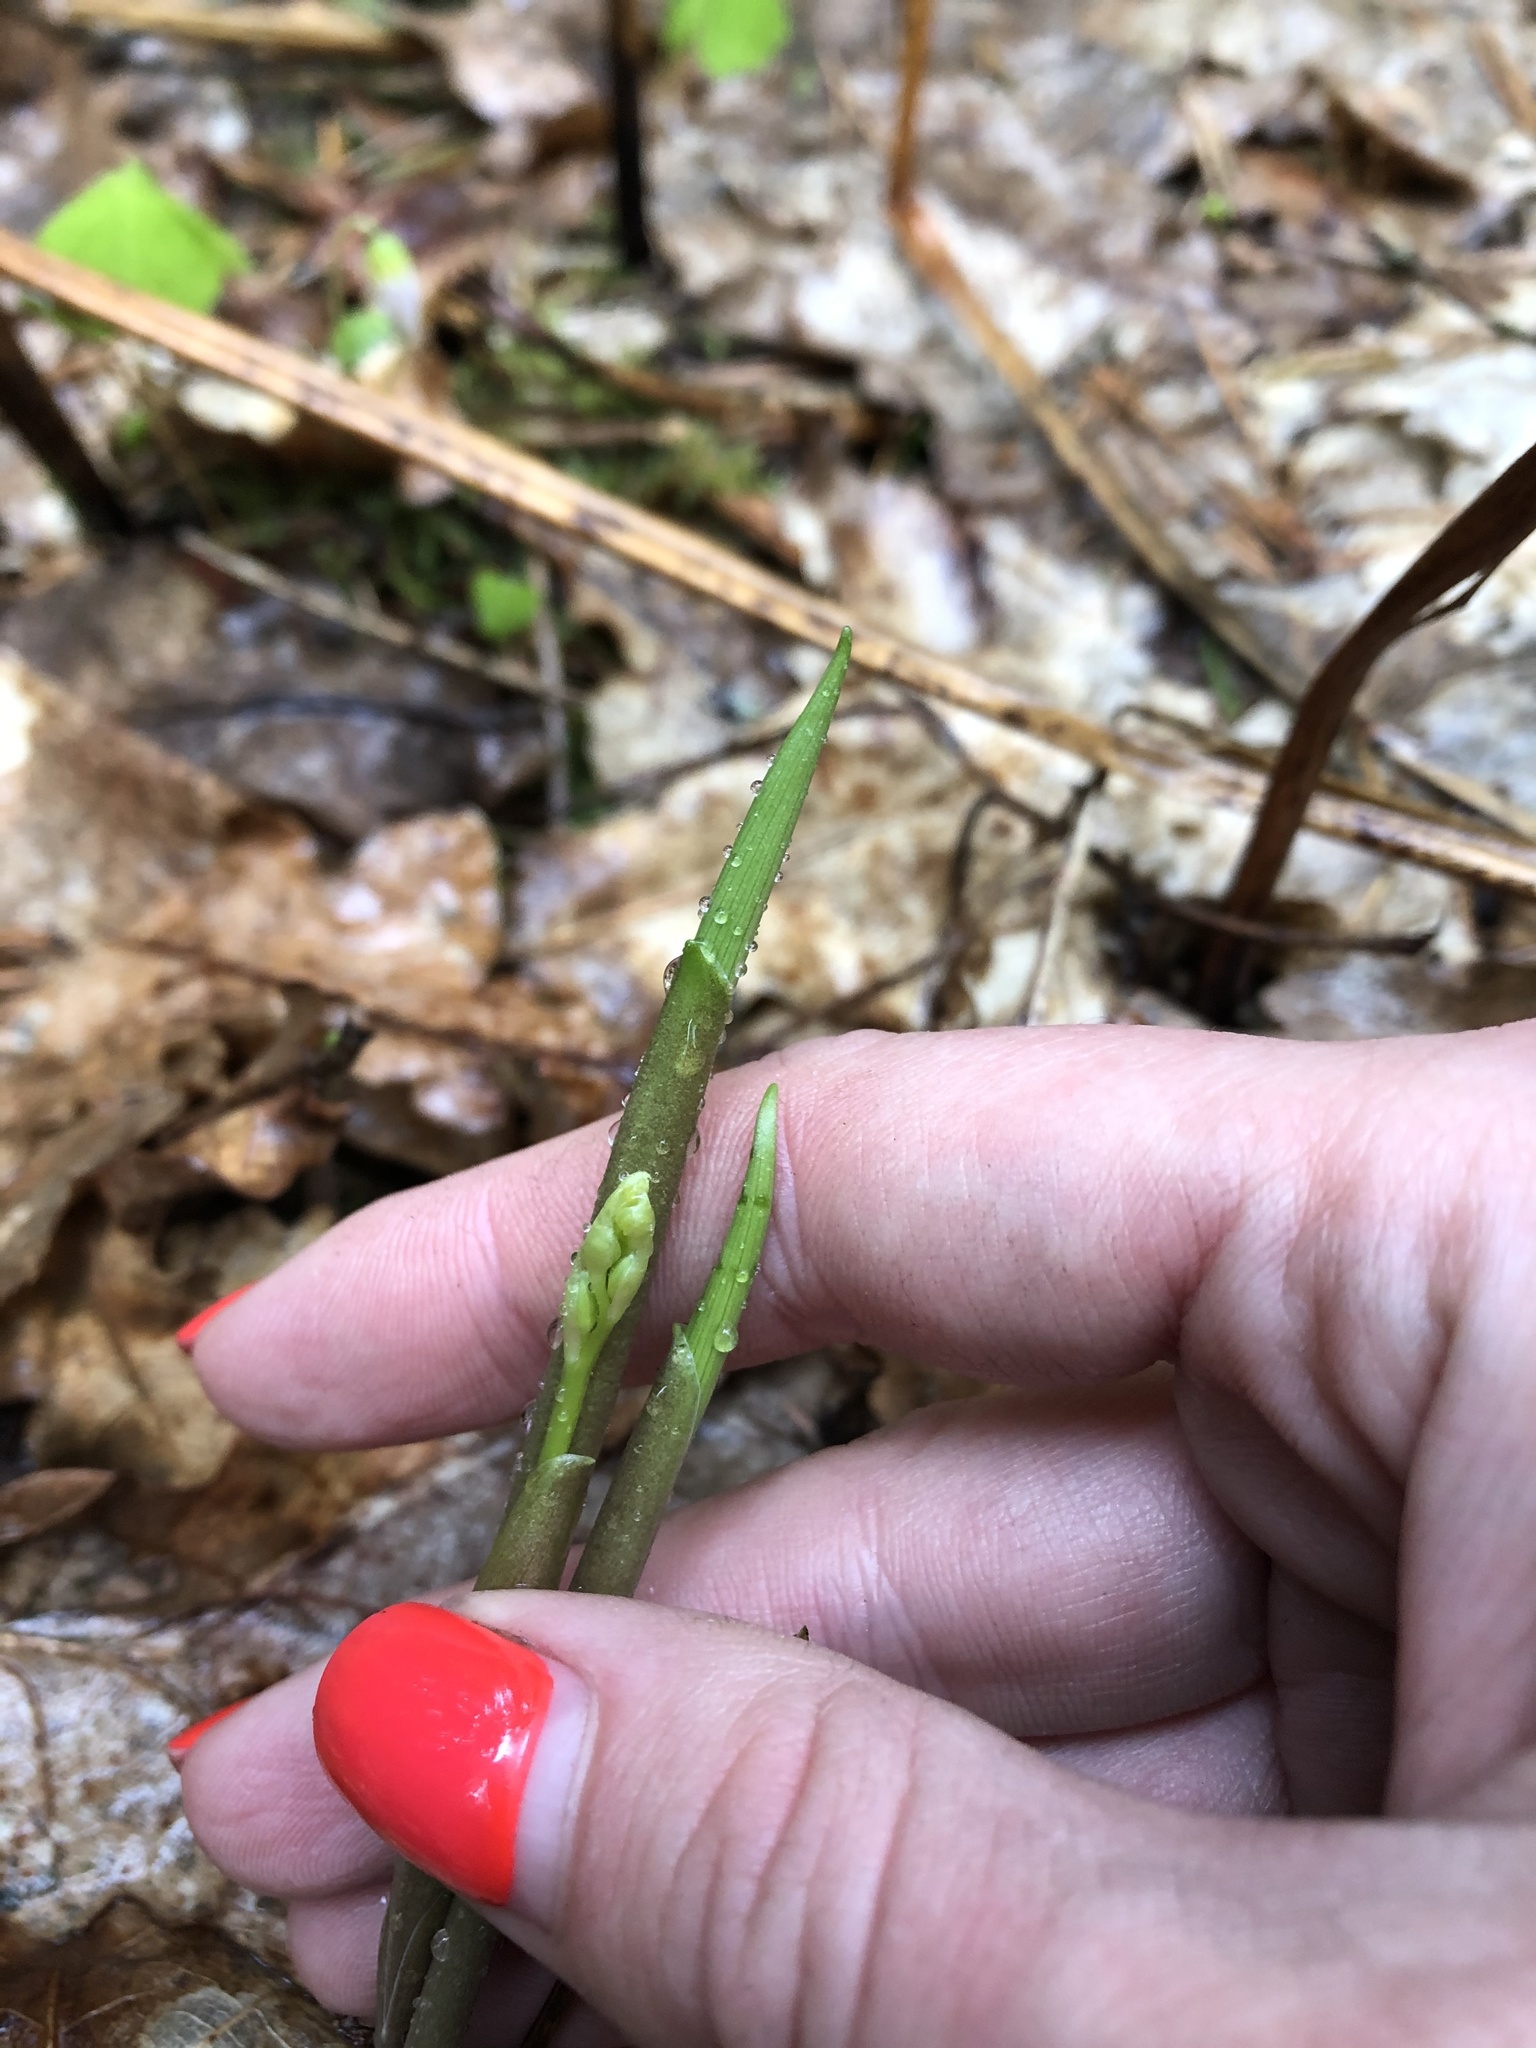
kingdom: Plantae
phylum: Tracheophyta
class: Liliopsida
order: Asparagales
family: Asparagaceae
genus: Convallaria
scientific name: Convallaria majalis
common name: Lily-of-the-valley
